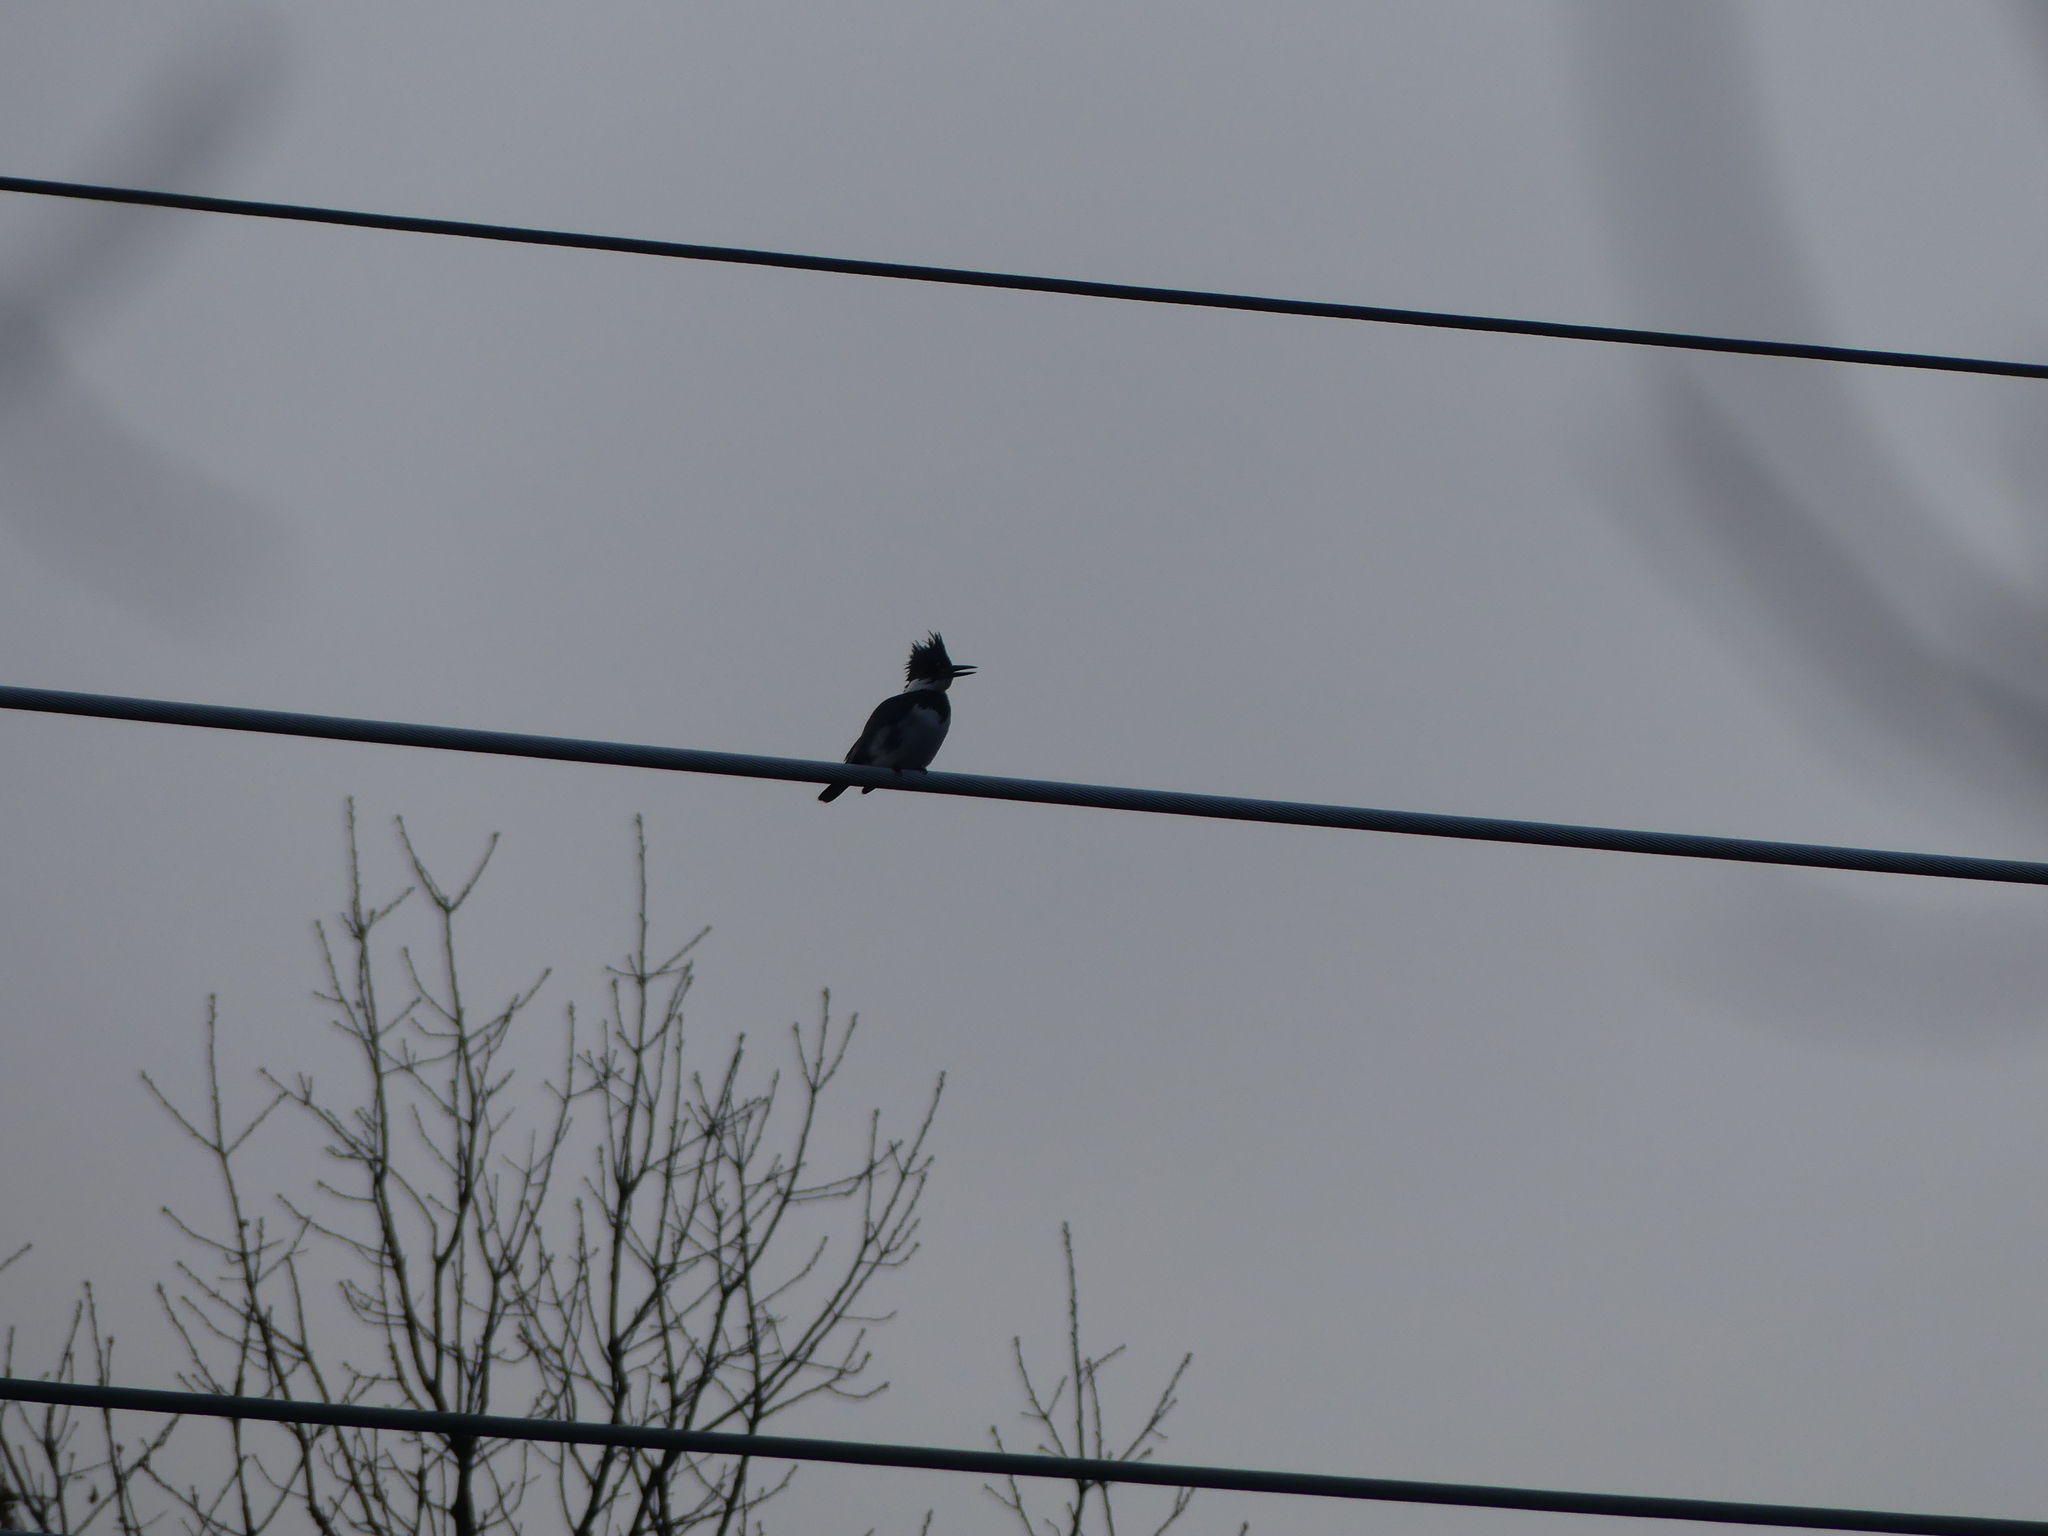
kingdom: Animalia
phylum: Chordata
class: Aves
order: Coraciiformes
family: Alcedinidae
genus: Megaceryle
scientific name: Megaceryle alcyon
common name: Belted kingfisher
